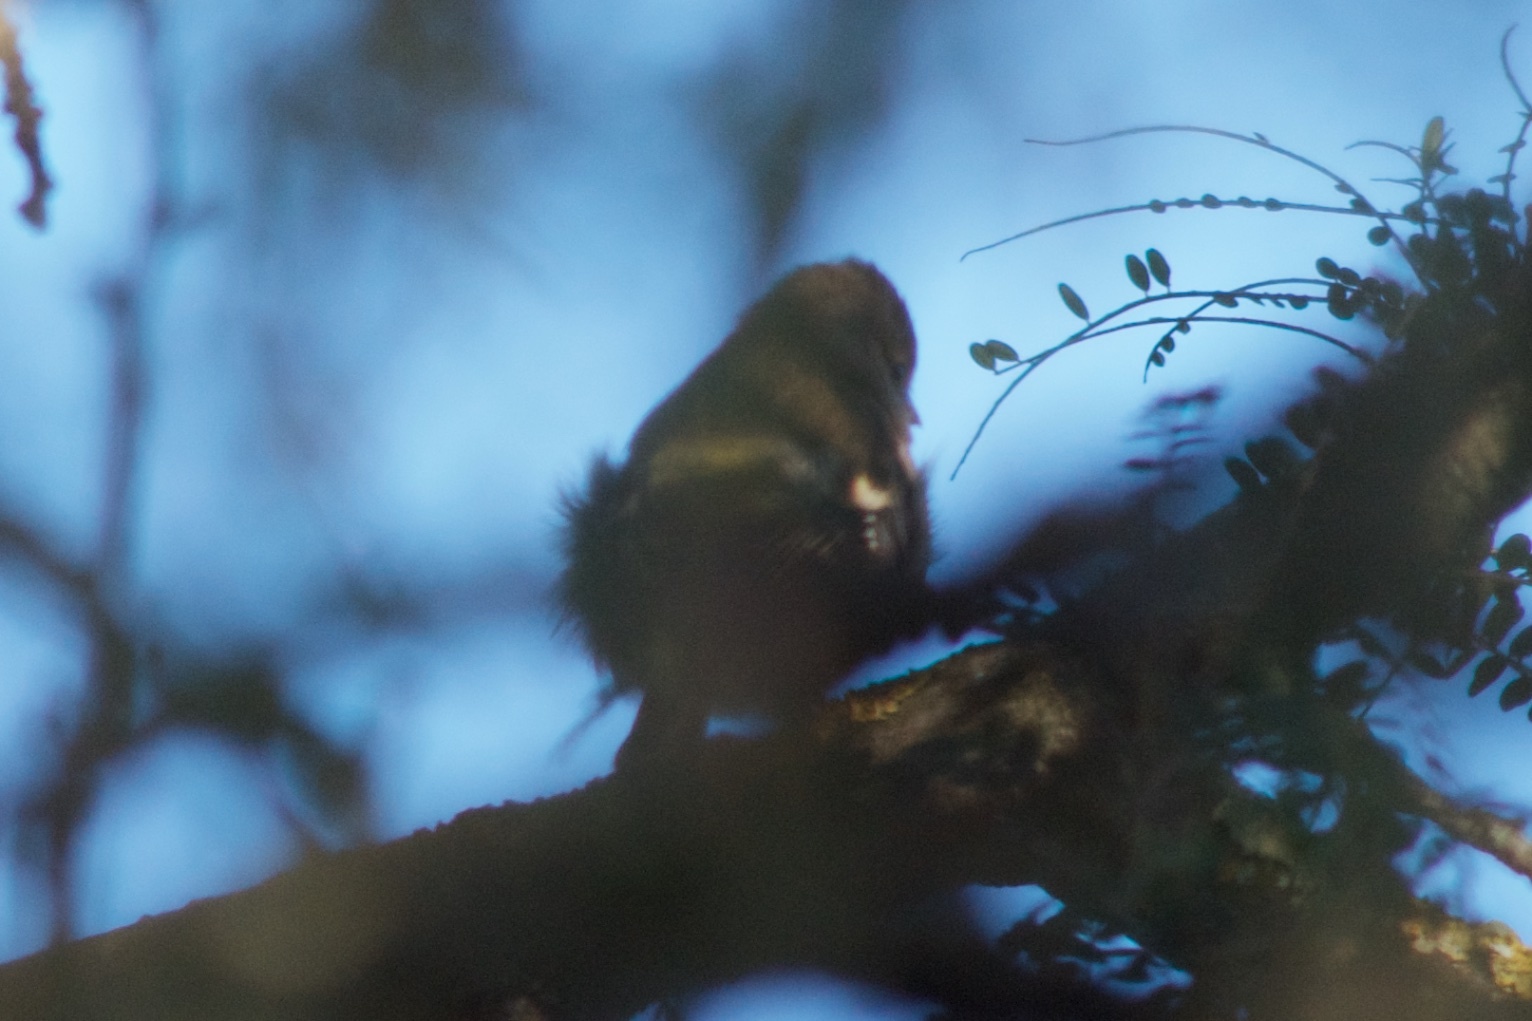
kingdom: Animalia
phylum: Chordata
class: Aves
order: Passeriformes
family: Fringillidae
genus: Fringilla
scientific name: Fringilla coelebs
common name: Common chaffinch
